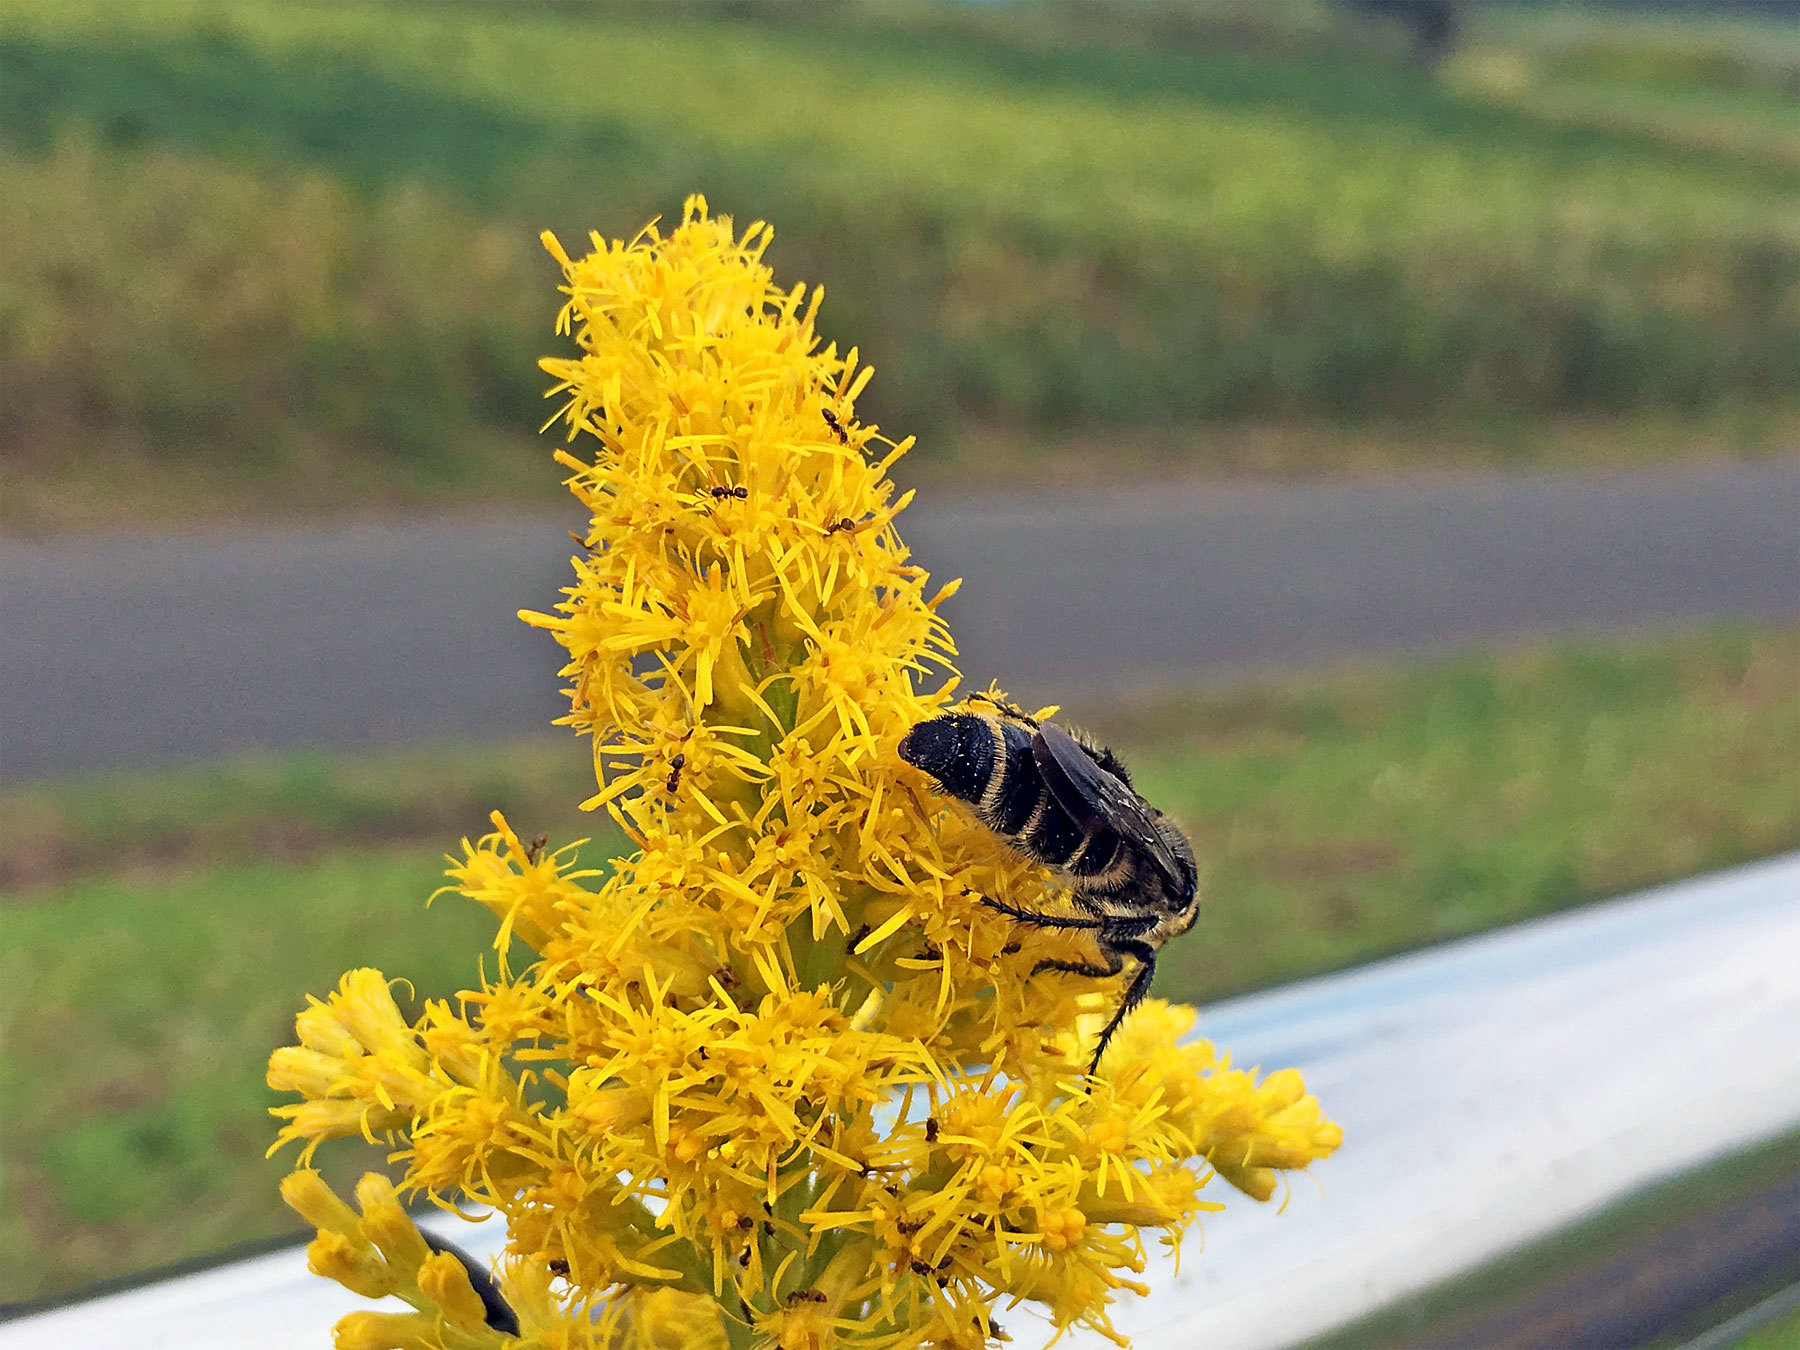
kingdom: Animalia
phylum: Arthropoda
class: Insecta
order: Hymenoptera
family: Scoliidae
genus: Campsomeris
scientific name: Campsomeris annulata
